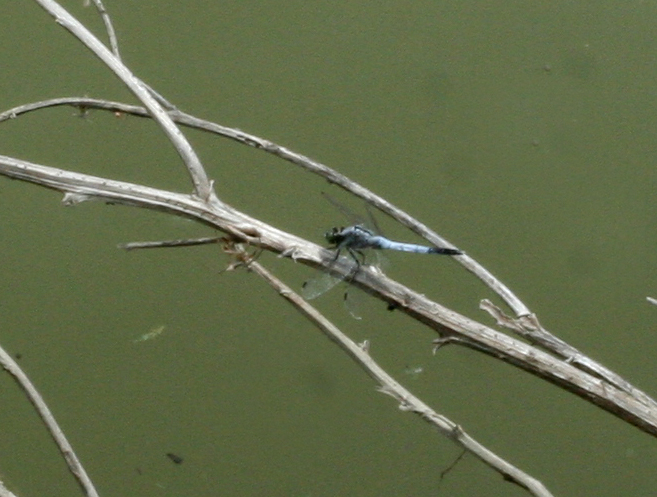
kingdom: Animalia
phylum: Arthropoda
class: Insecta
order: Odonata
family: Libellulidae
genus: Orthetrum
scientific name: Orthetrum albistylum
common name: White-tailed skimmer
